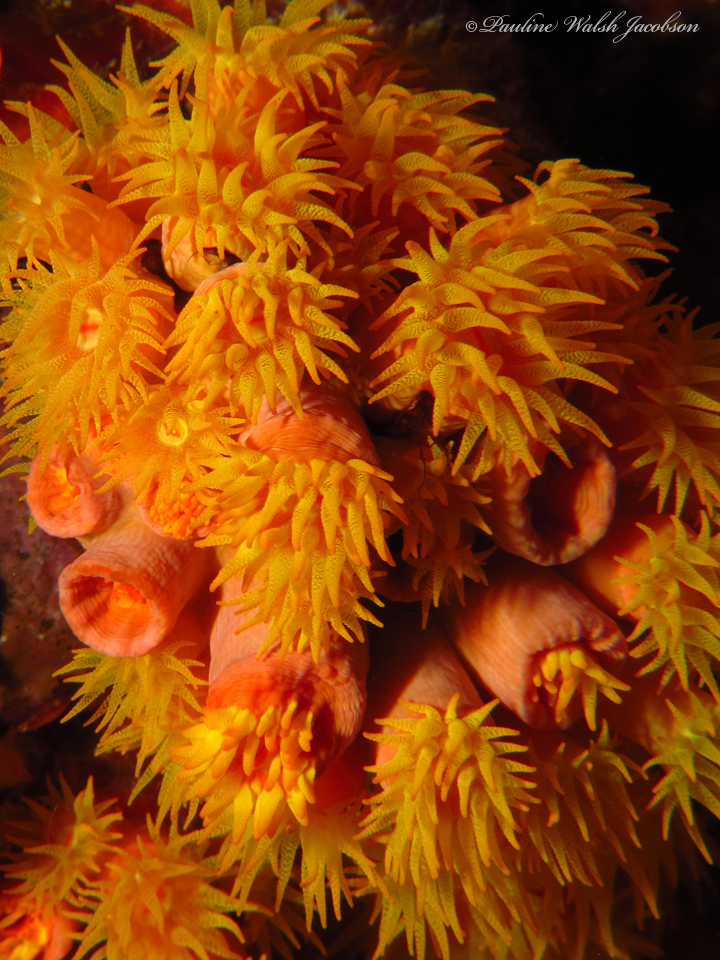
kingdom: Animalia
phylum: Cnidaria
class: Anthozoa
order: Scleractinia
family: Dendrophylliidae
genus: Tubastraea
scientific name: Tubastraea tagusensis
